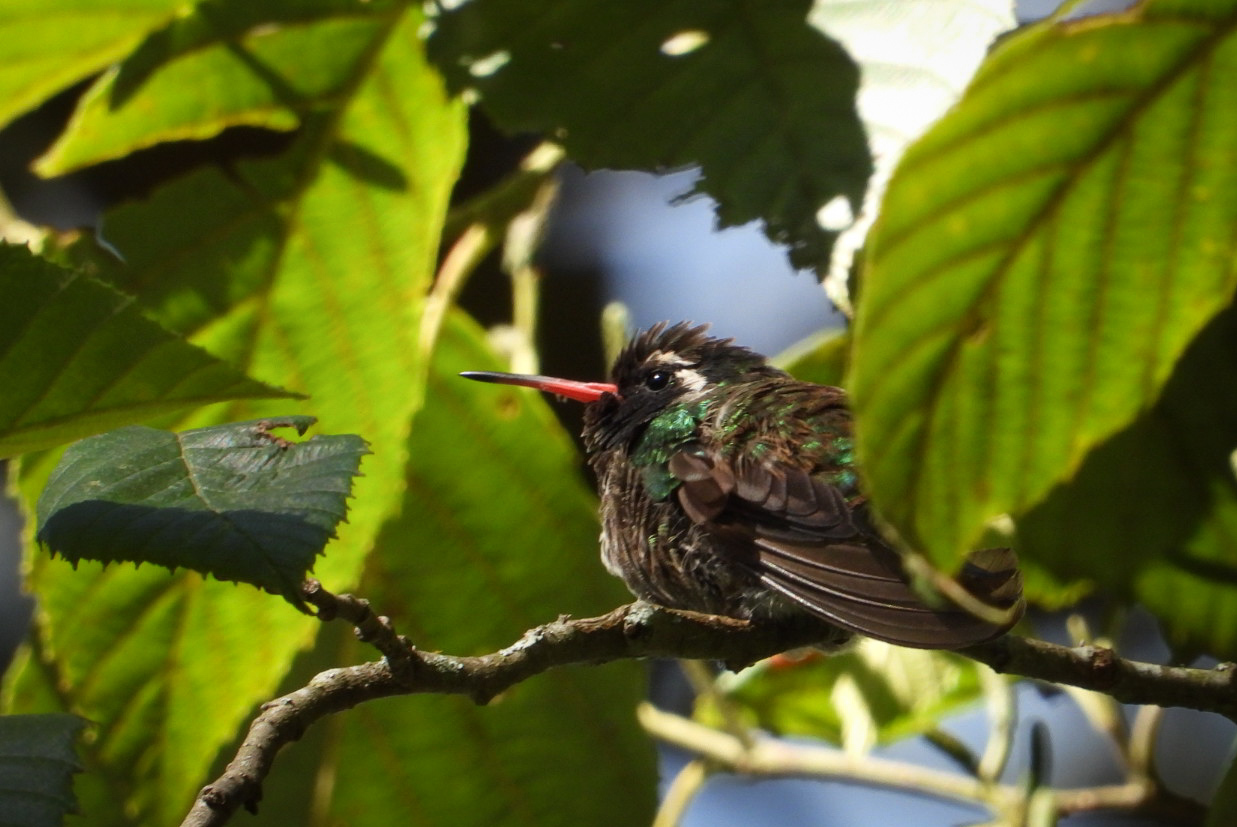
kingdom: Animalia
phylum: Chordata
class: Aves
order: Apodiformes
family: Trochilidae
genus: Basilinna
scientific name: Basilinna leucotis
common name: White-eared hummingbird
